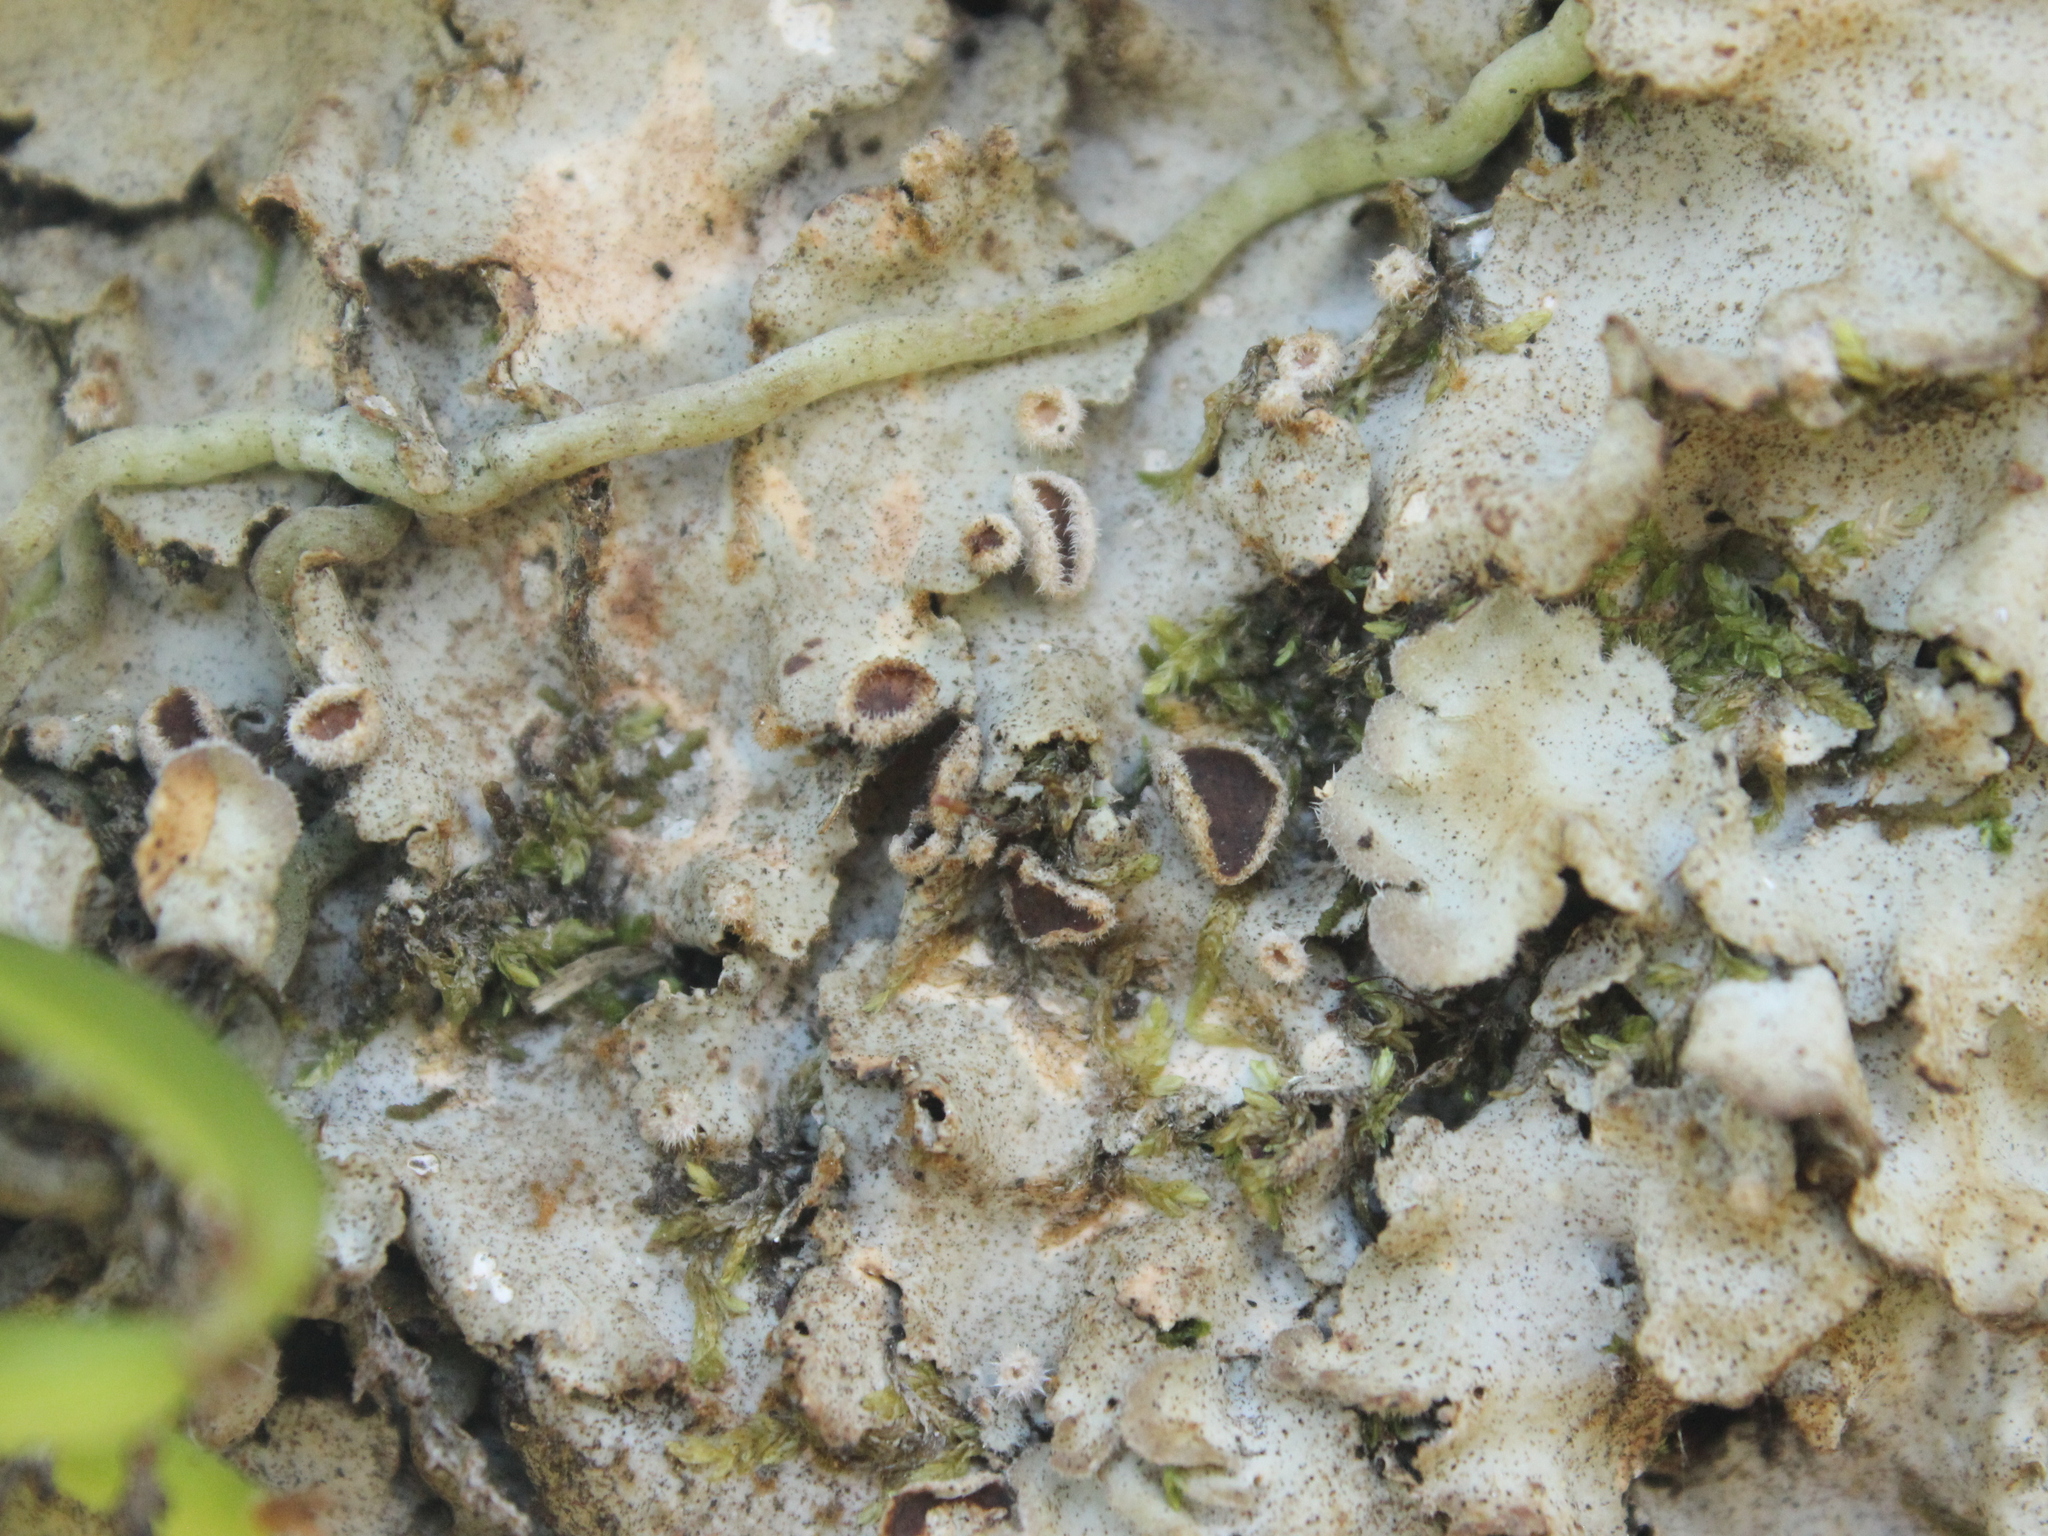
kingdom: Fungi
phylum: Ascomycota
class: Lecanoromycetes
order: Peltigerales
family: Lobariaceae
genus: Pseudocyphellaria
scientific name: Pseudocyphellaria coriacea
